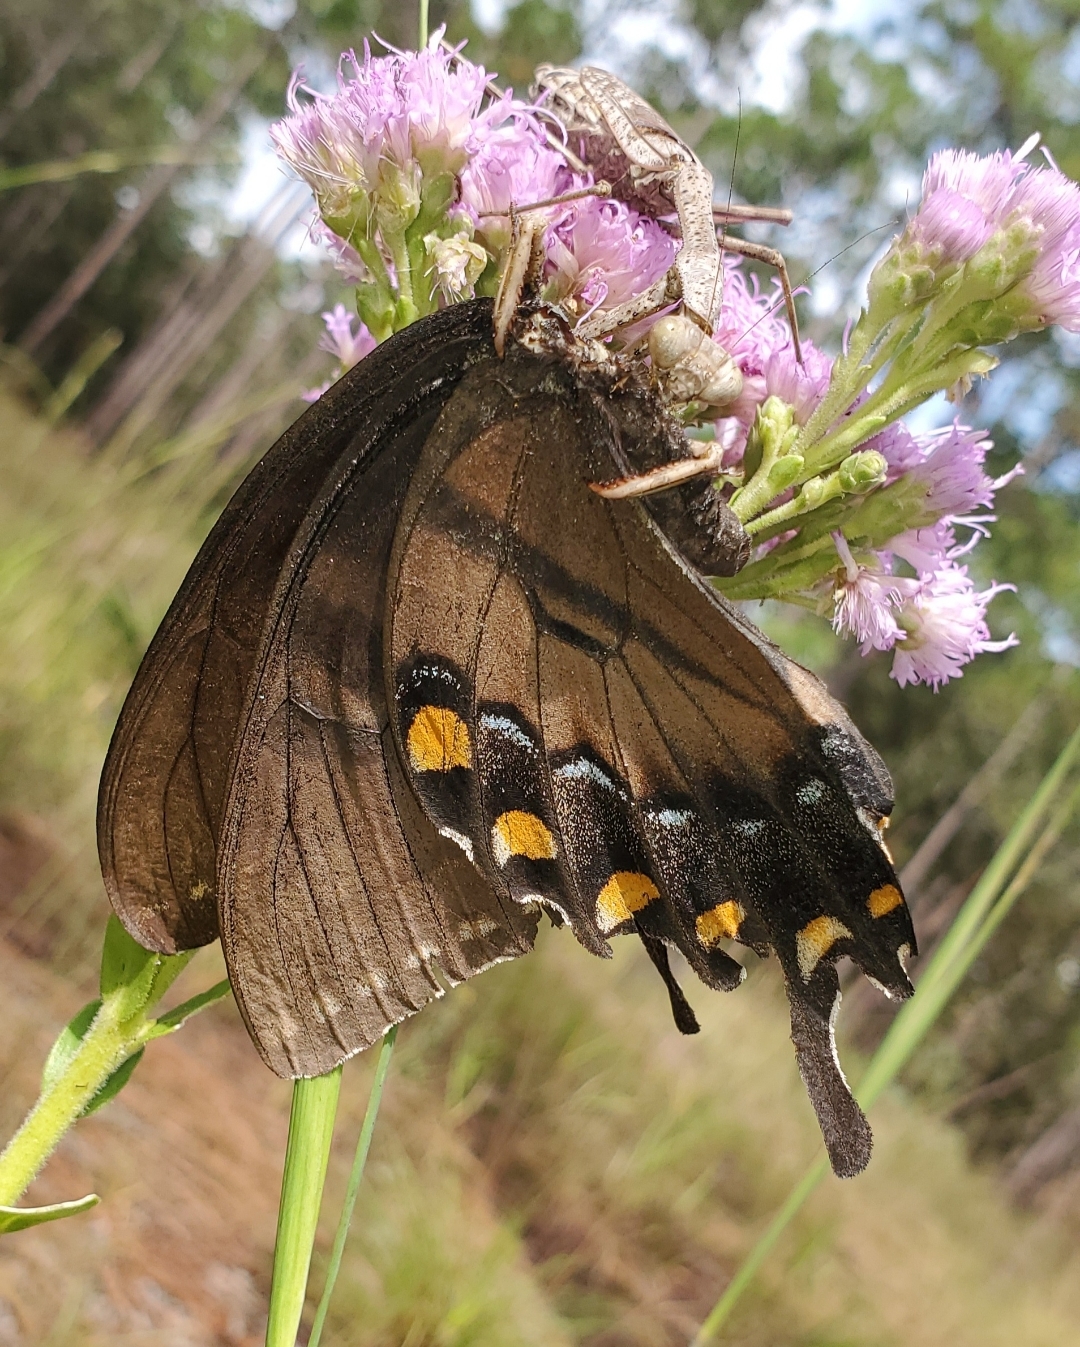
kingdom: Animalia
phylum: Arthropoda
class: Insecta
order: Lepidoptera
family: Papilionidae
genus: Papilio
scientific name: Papilio glaucus
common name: Tiger swallowtail
